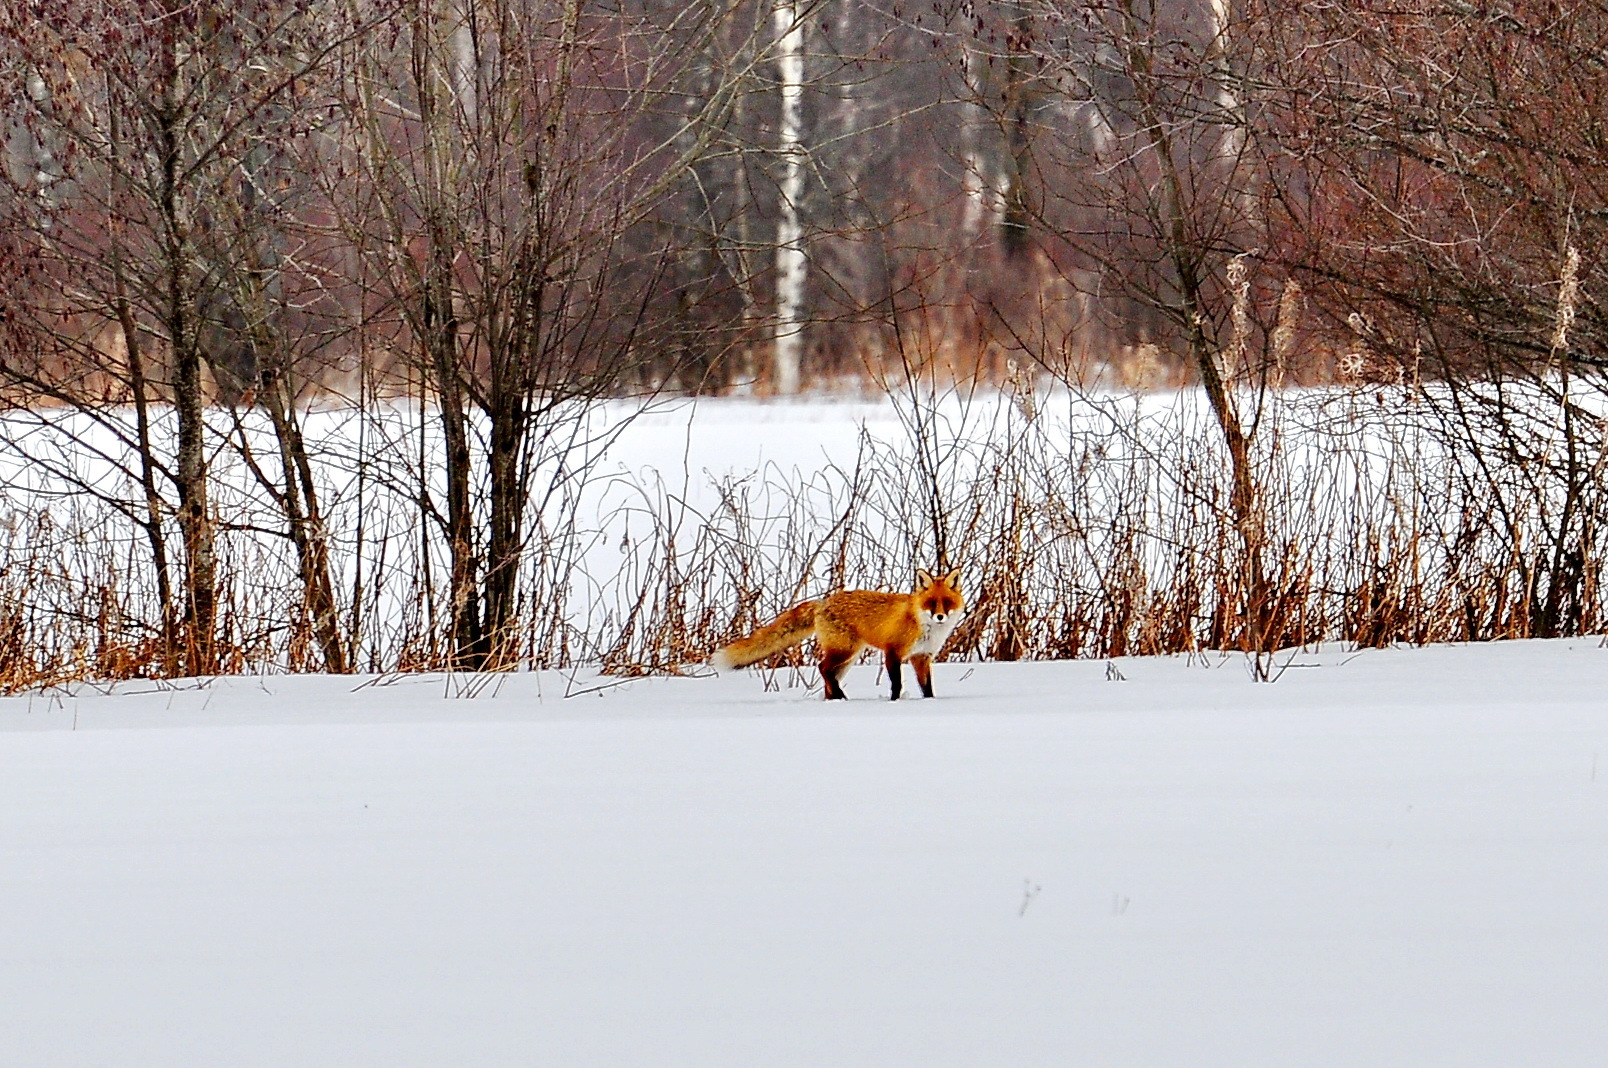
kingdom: Animalia
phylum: Chordata
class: Mammalia
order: Carnivora
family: Canidae
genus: Vulpes
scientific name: Vulpes vulpes
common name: Red fox
